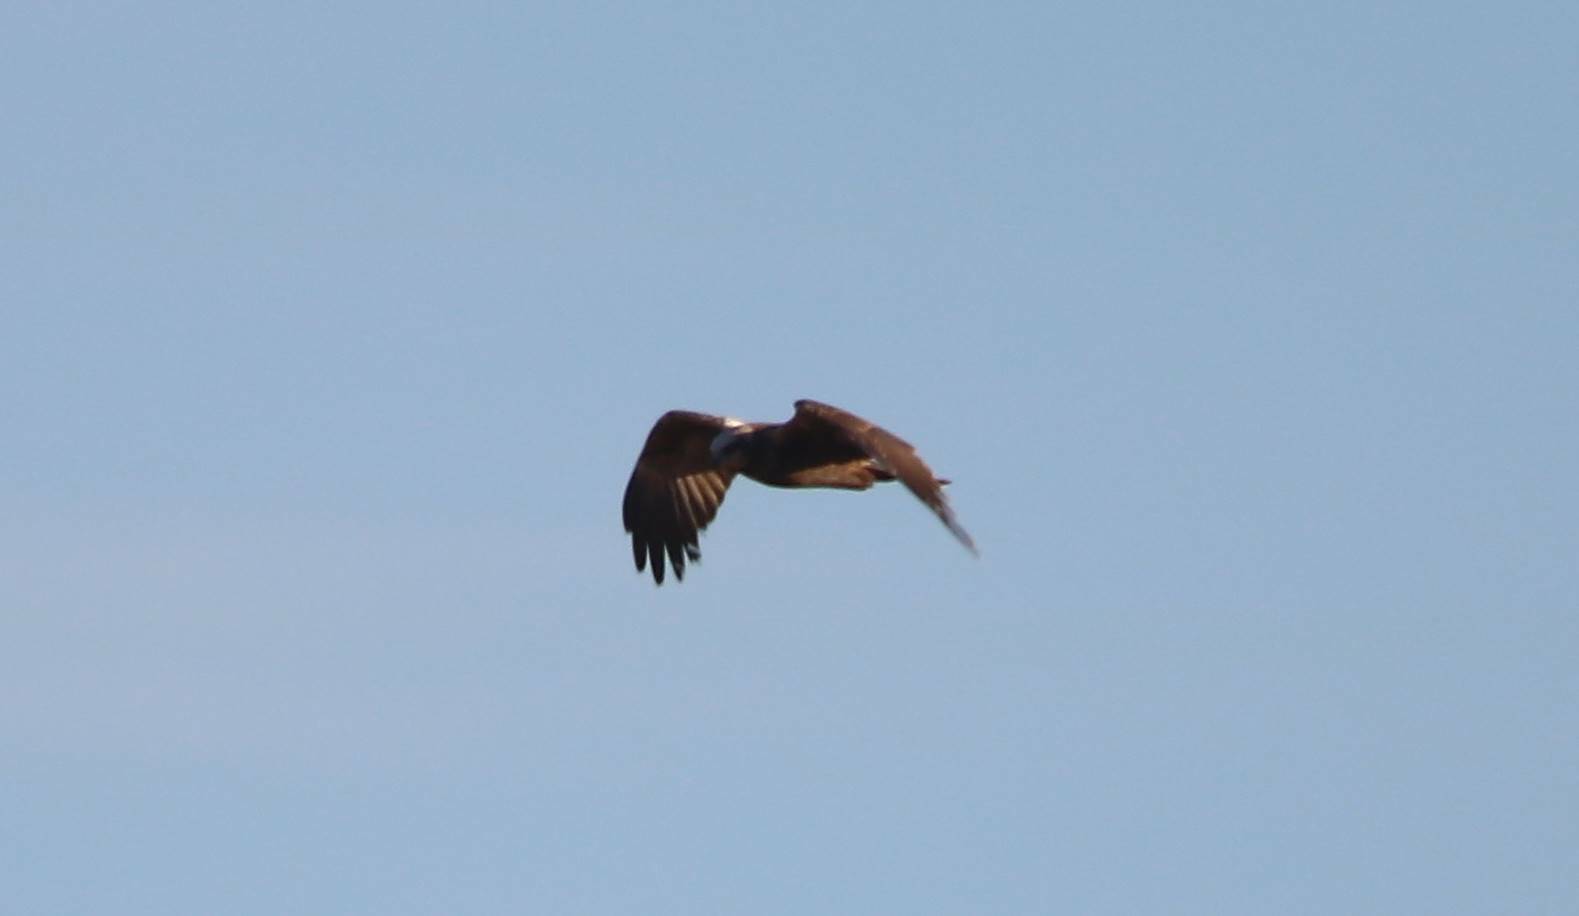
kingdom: Animalia
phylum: Chordata
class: Aves
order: Accipitriformes
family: Accipitridae
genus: Circus
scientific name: Circus aeruginosus
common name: Western marsh harrier
